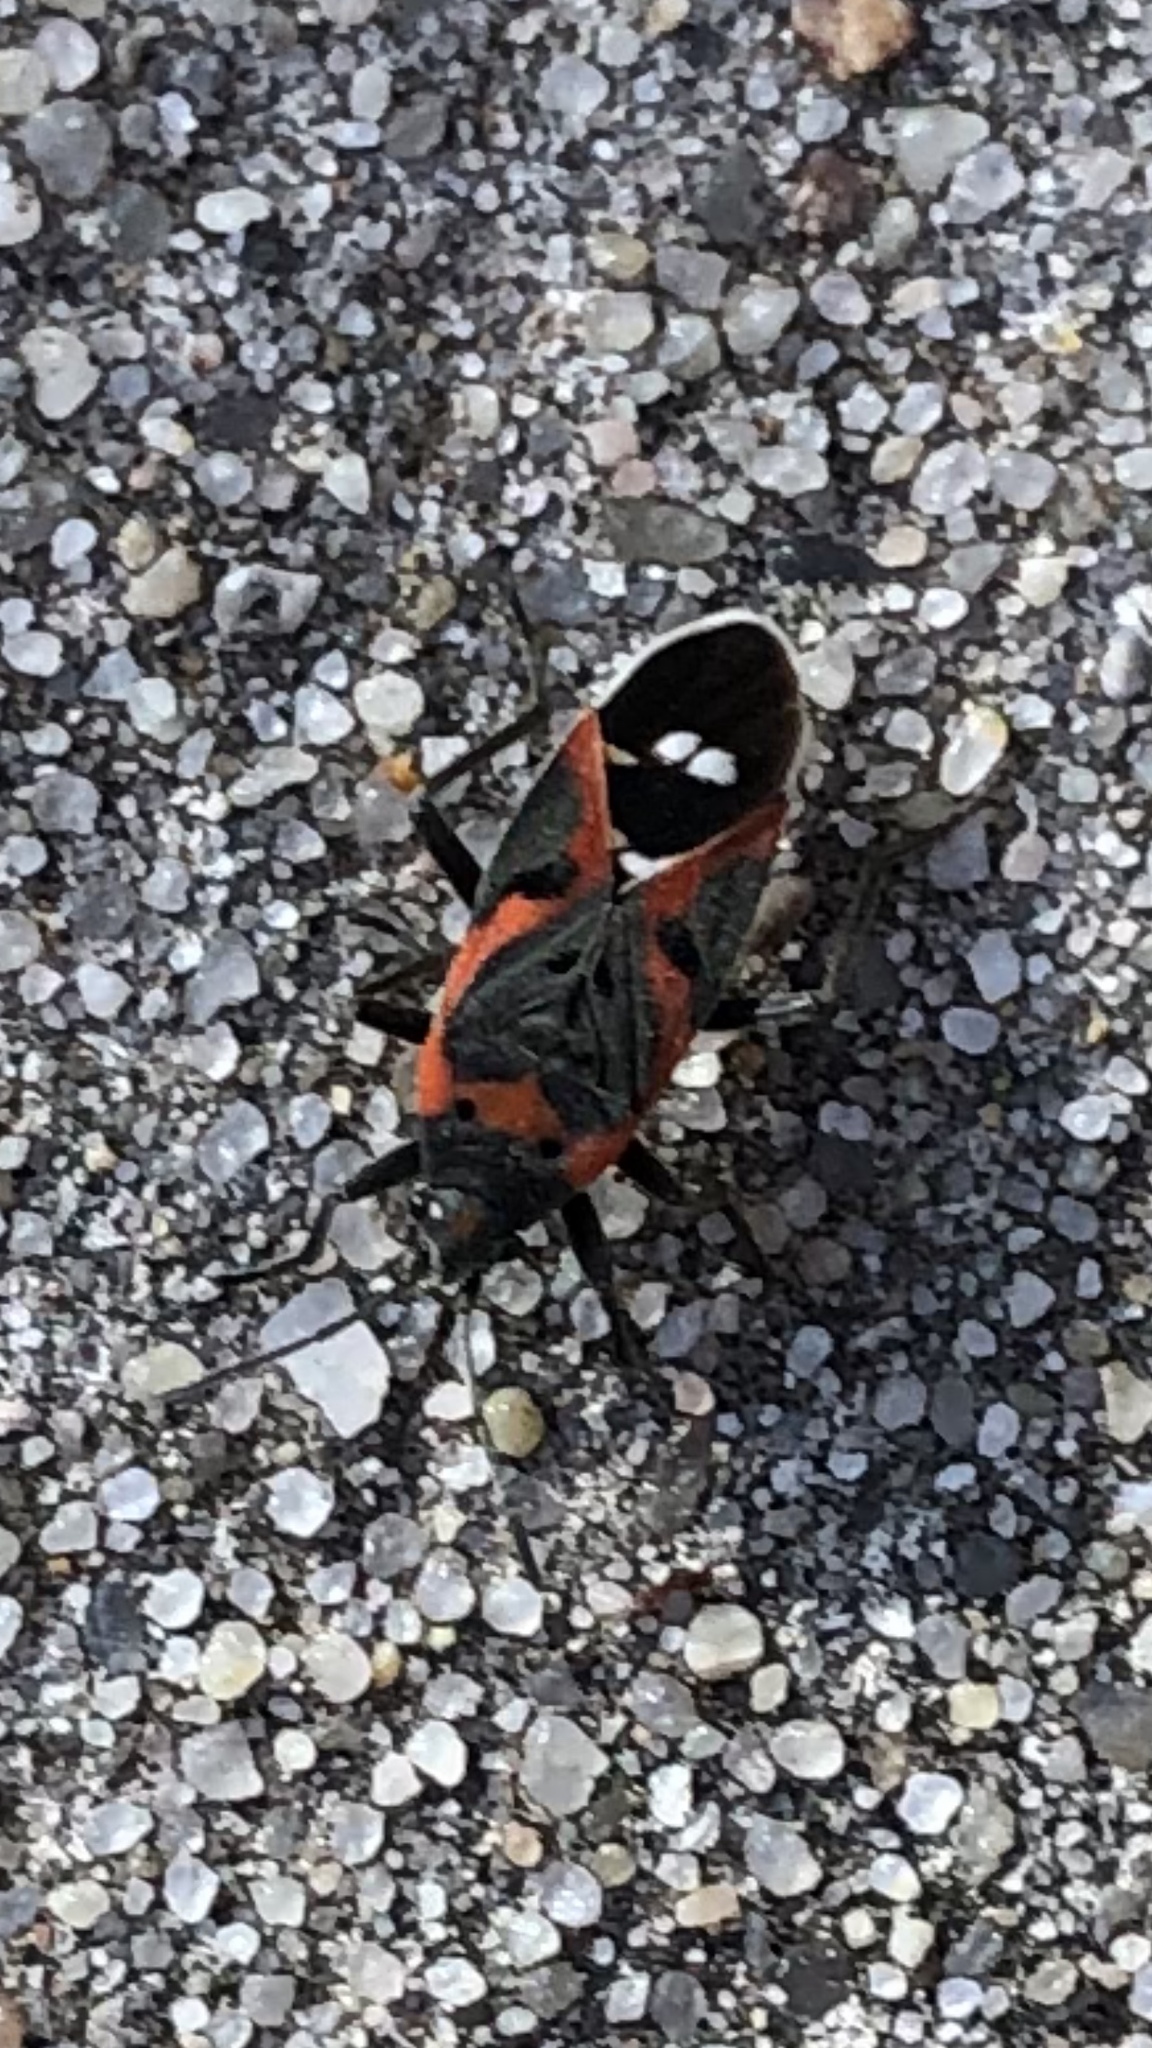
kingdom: Animalia
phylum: Arthropoda
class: Insecta
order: Hemiptera
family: Lygaeidae
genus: Lygaeus
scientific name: Lygaeus kalmii
